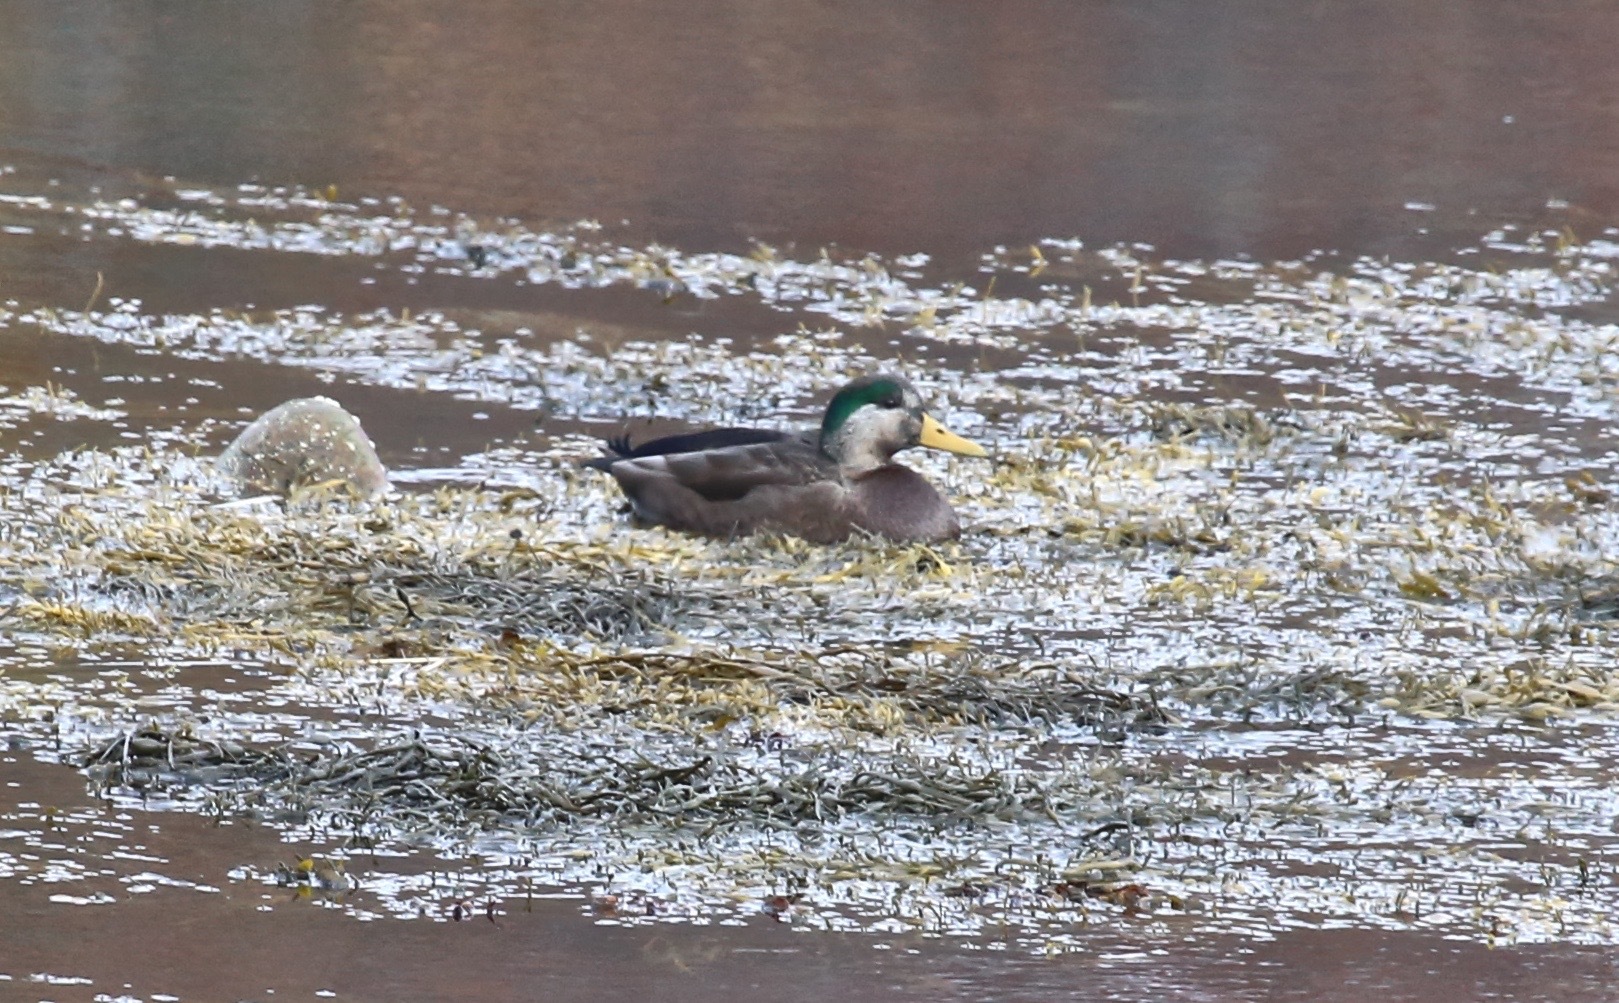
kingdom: Animalia
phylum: Chordata
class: Aves
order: Anseriformes
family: Anatidae
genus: Anas
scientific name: Anas
